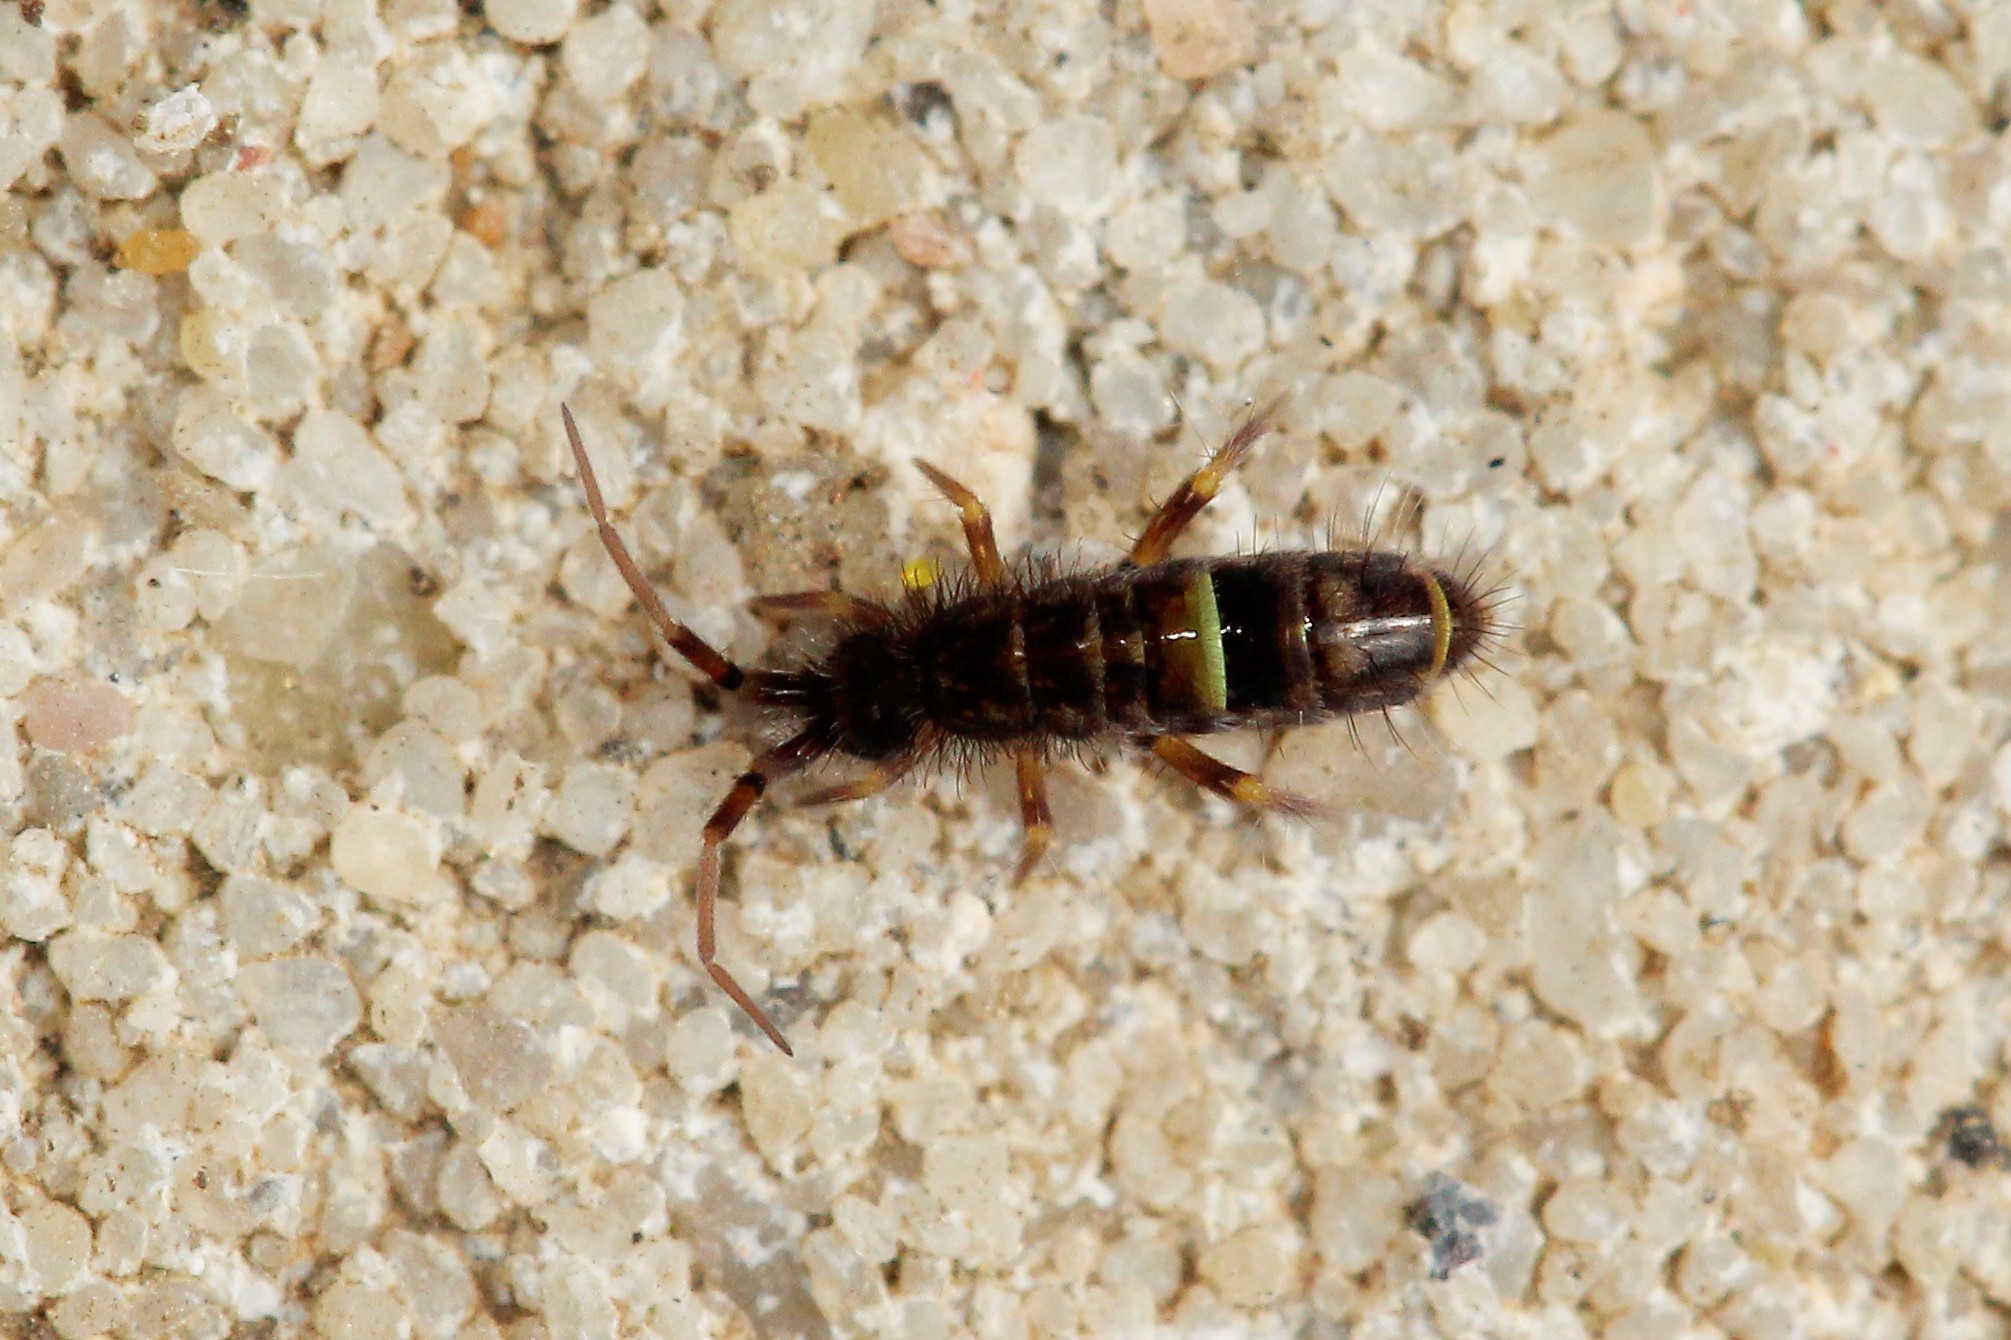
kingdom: Animalia
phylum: Arthropoda
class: Collembola
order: Entomobryomorpha
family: Orchesellidae
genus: Orchesella
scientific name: Orchesella cincta
